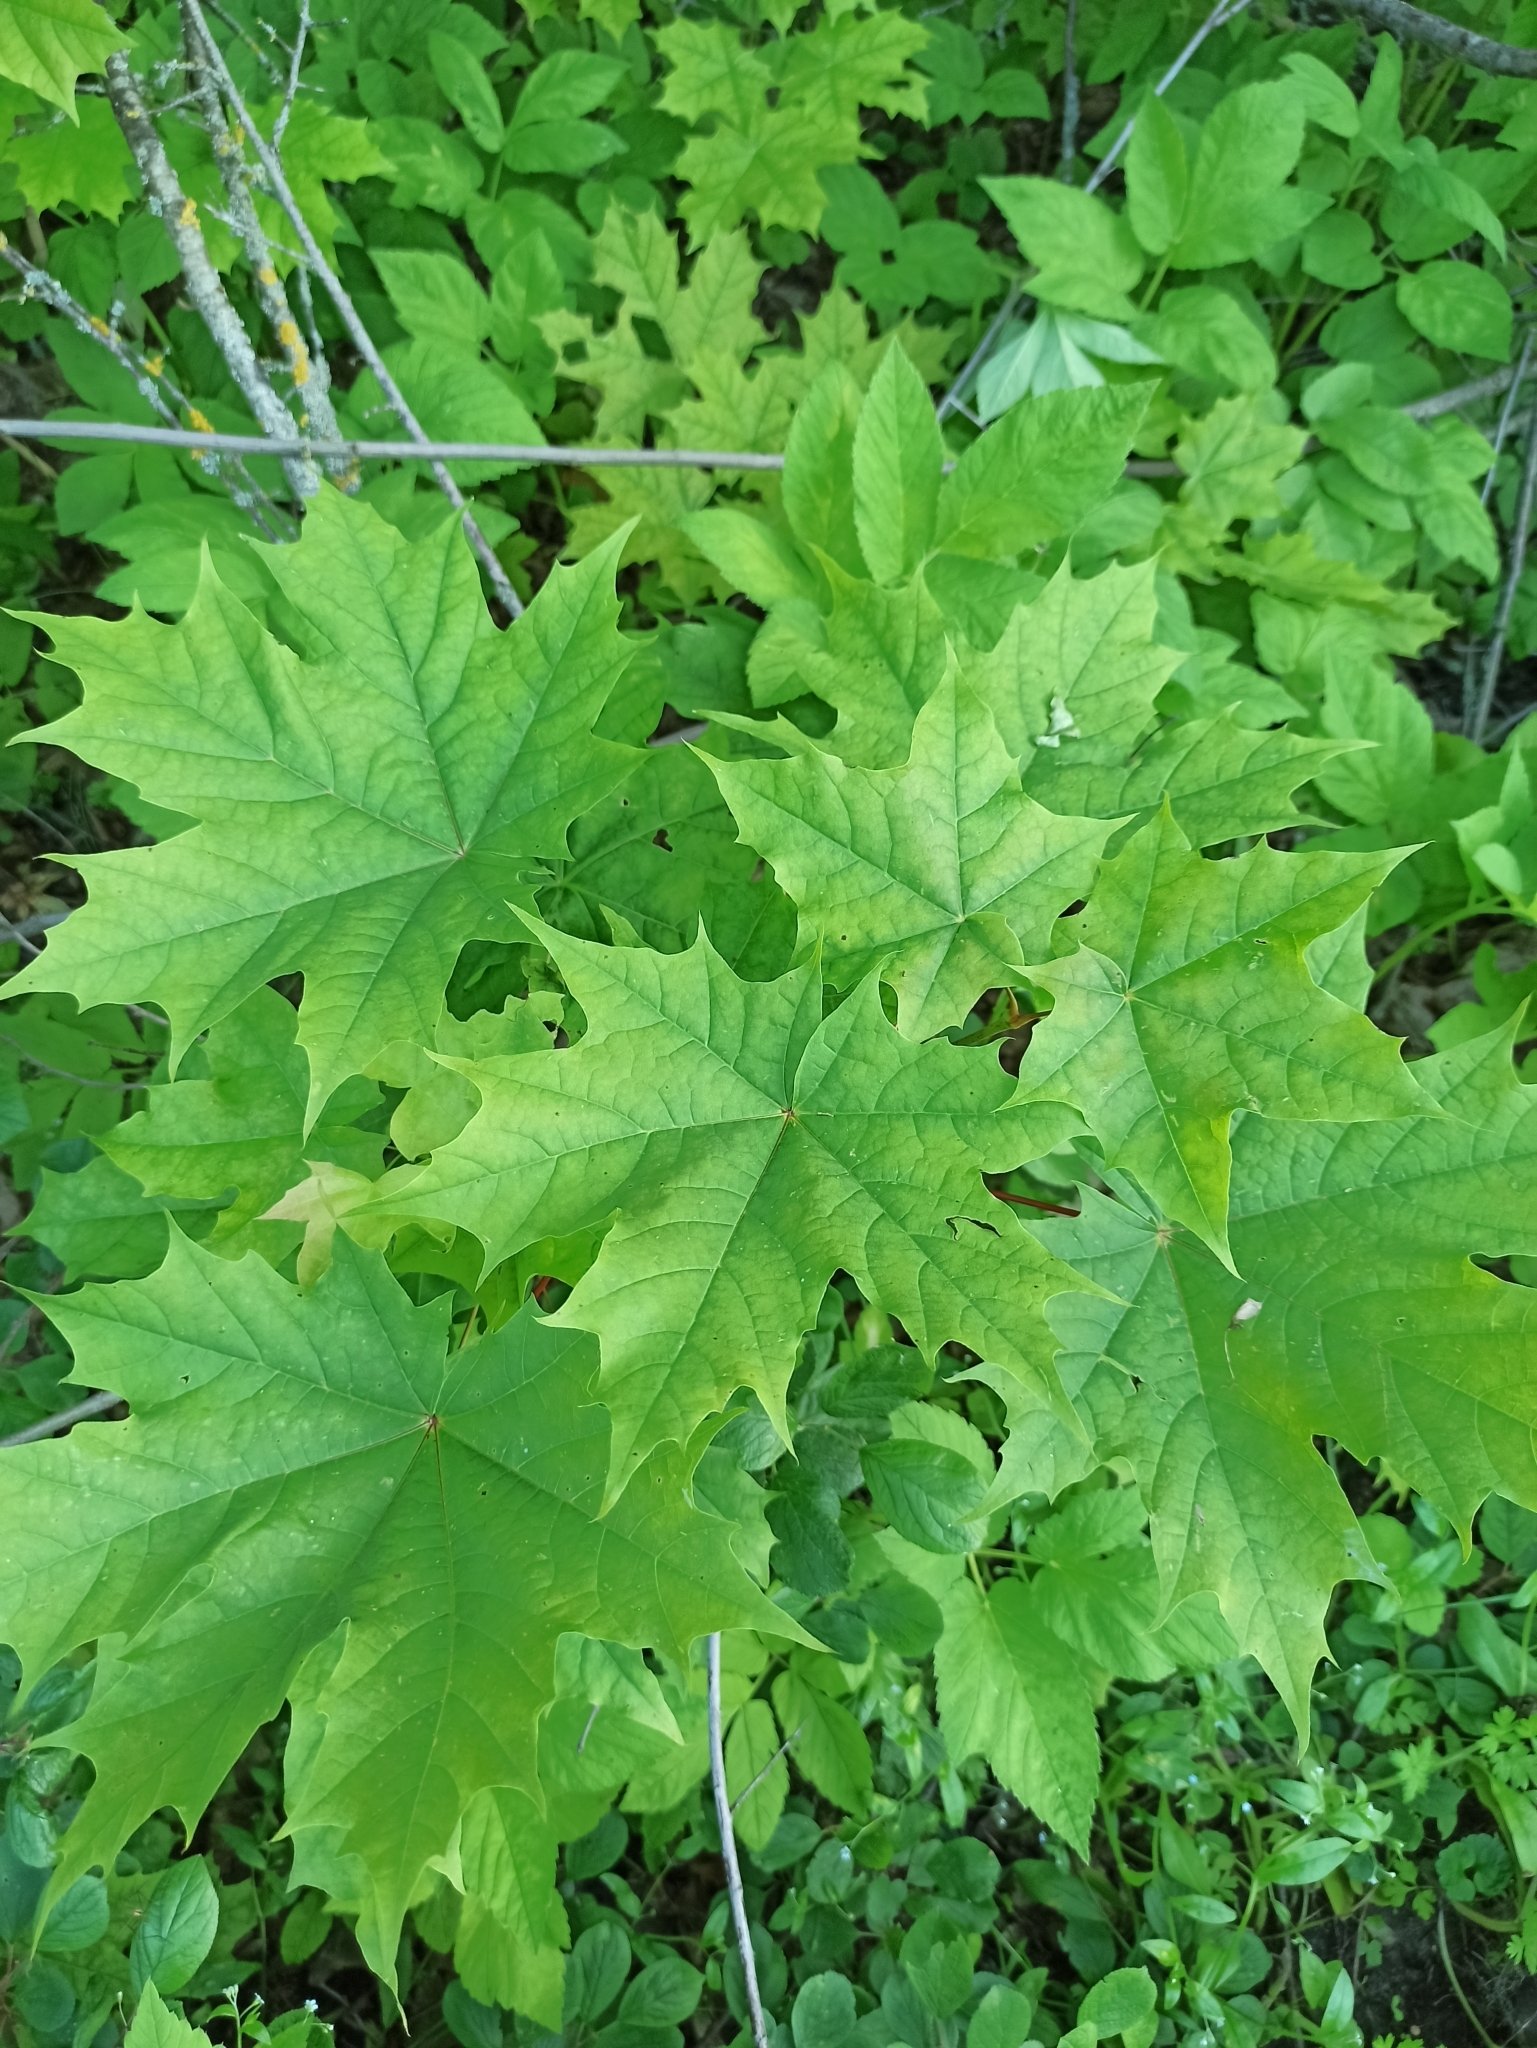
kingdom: Plantae
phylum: Tracheophyta
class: Magnoliopsida
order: Sapindales
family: Sapindaceae
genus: Acer
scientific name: Acer platanoides
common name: Norway maple
